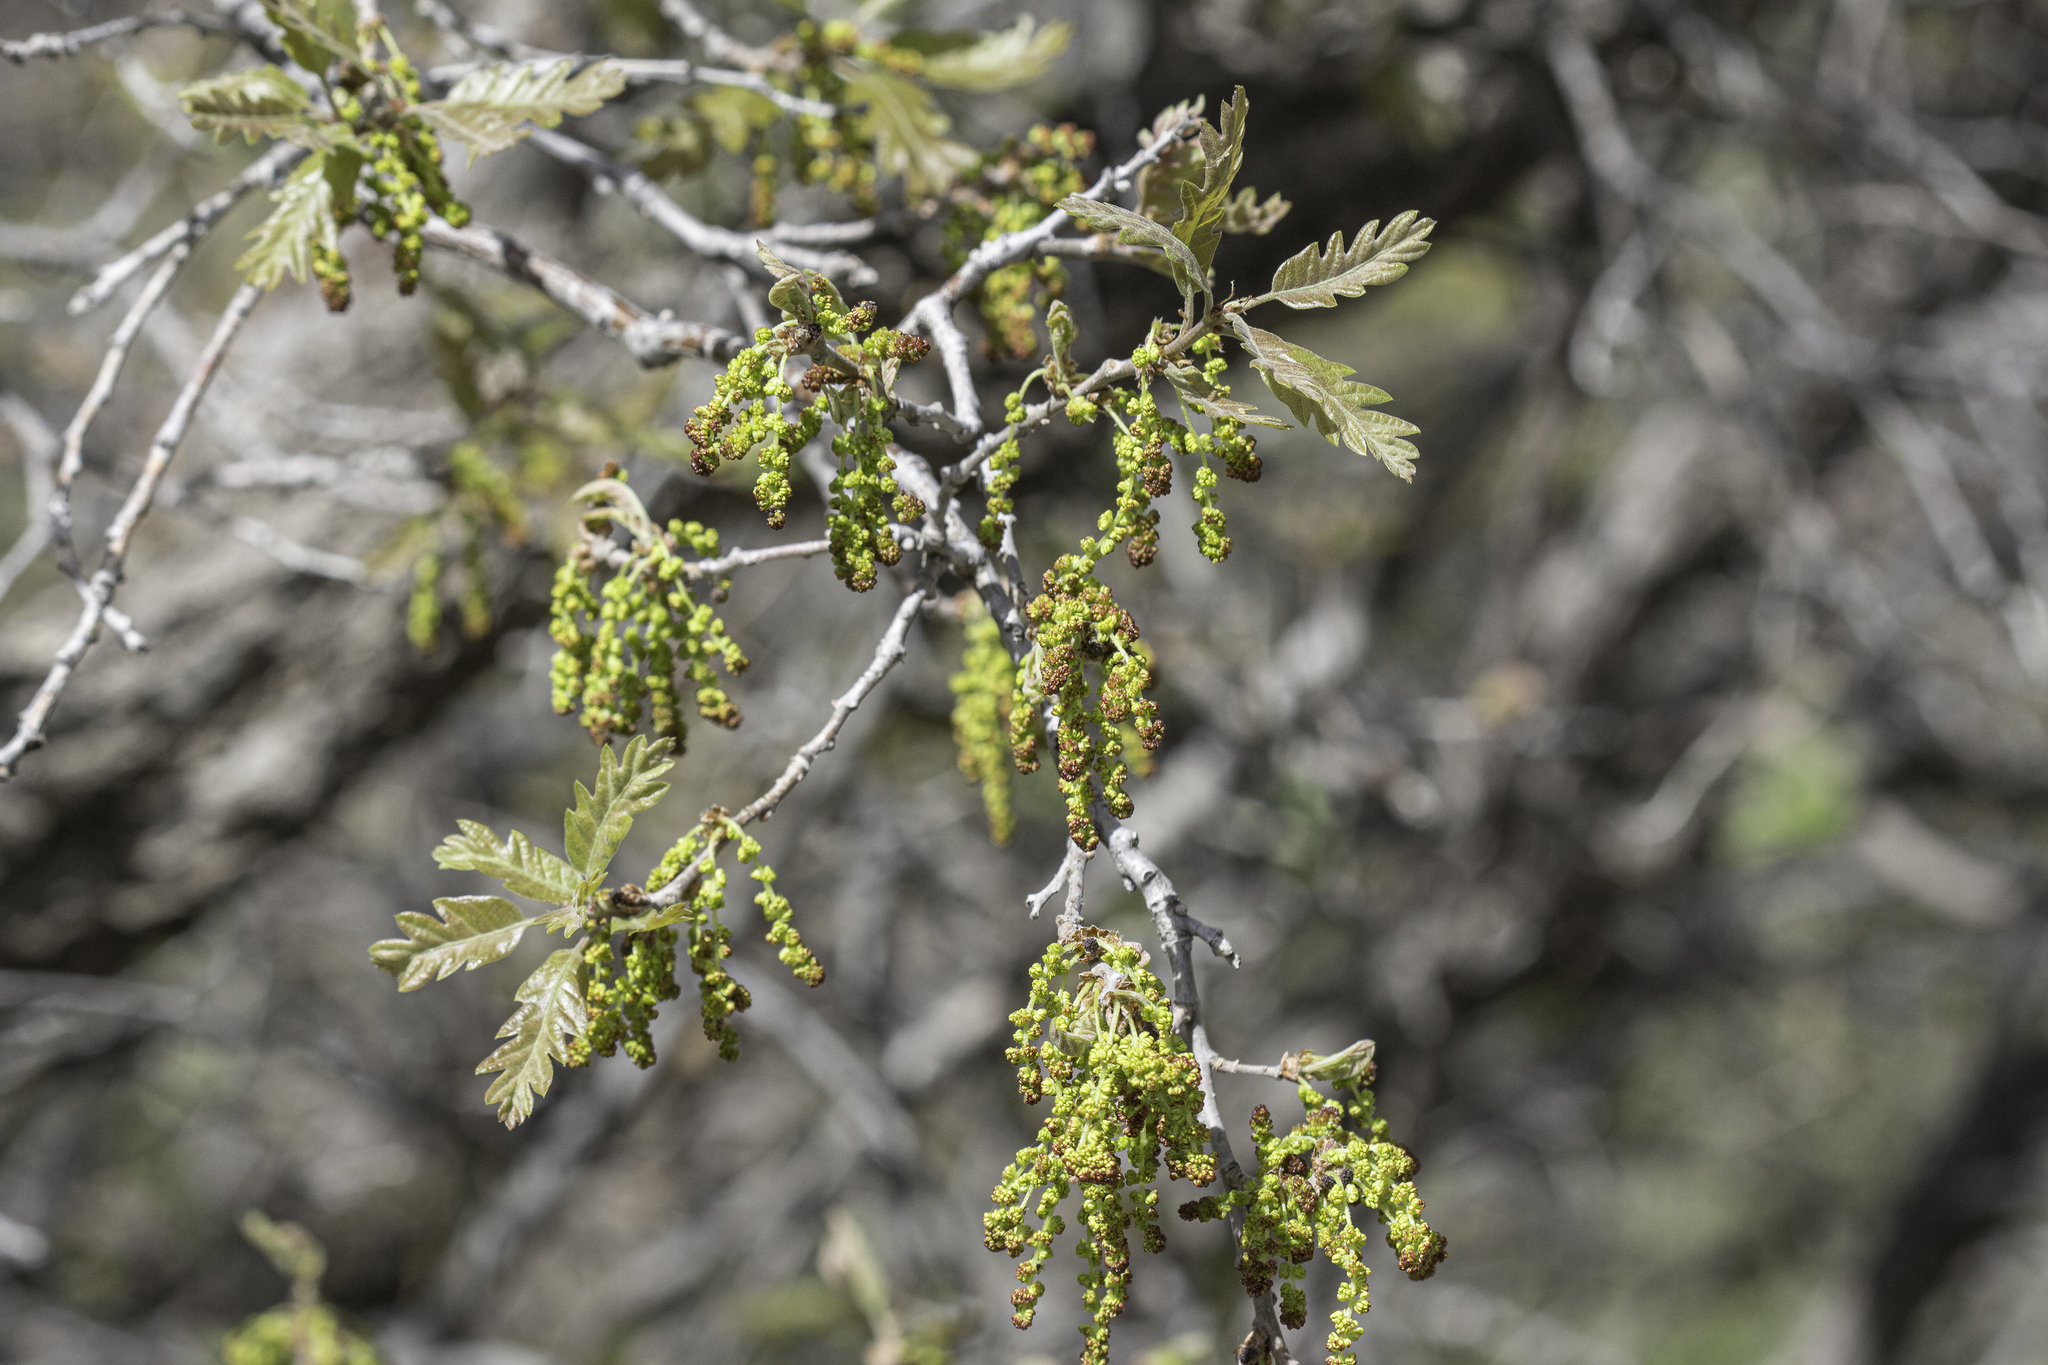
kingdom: Plantae
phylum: Tracheophyta
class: Magnoliopsida
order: Fagales
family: Fagaceae
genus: Quercus
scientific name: Quercus gambelii
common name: Gambel oak
